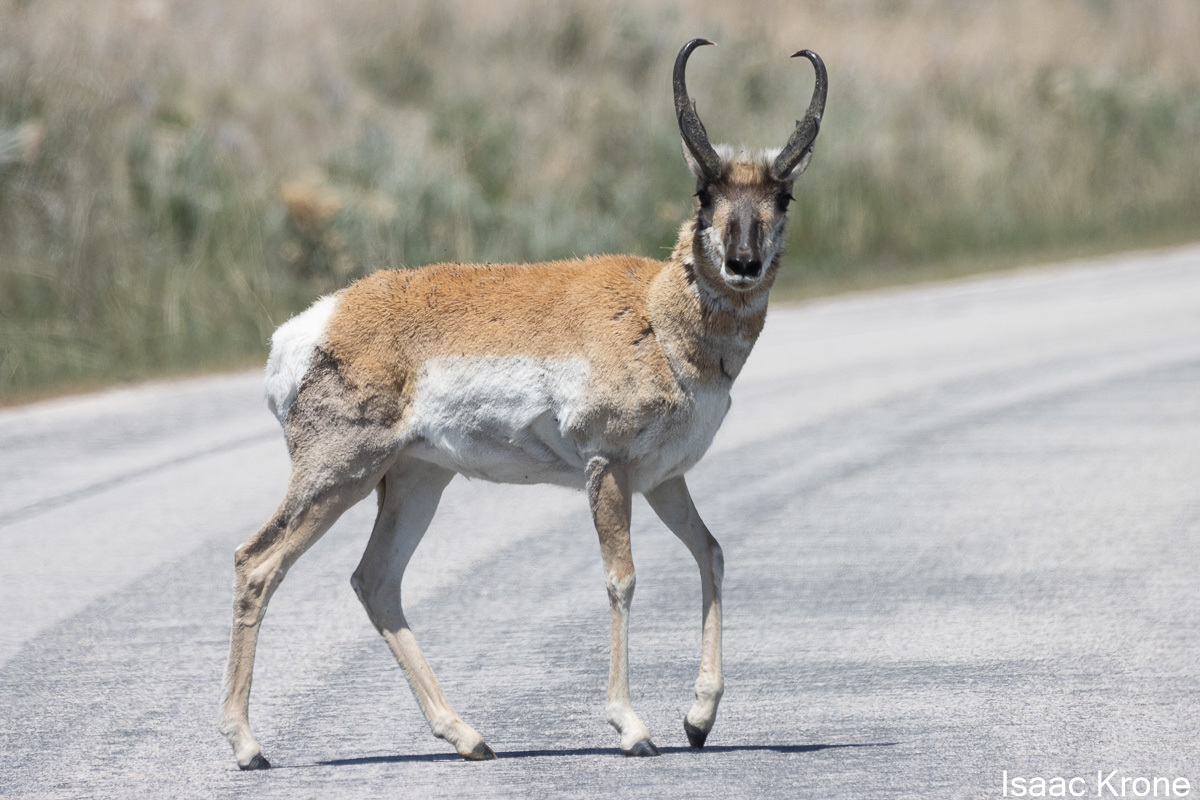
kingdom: Animalia
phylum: Chordata
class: Mammalia
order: Artiodactyla
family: Antilocapridae
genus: Antilocapra
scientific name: Antilocapra americana
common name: Pronghorn
